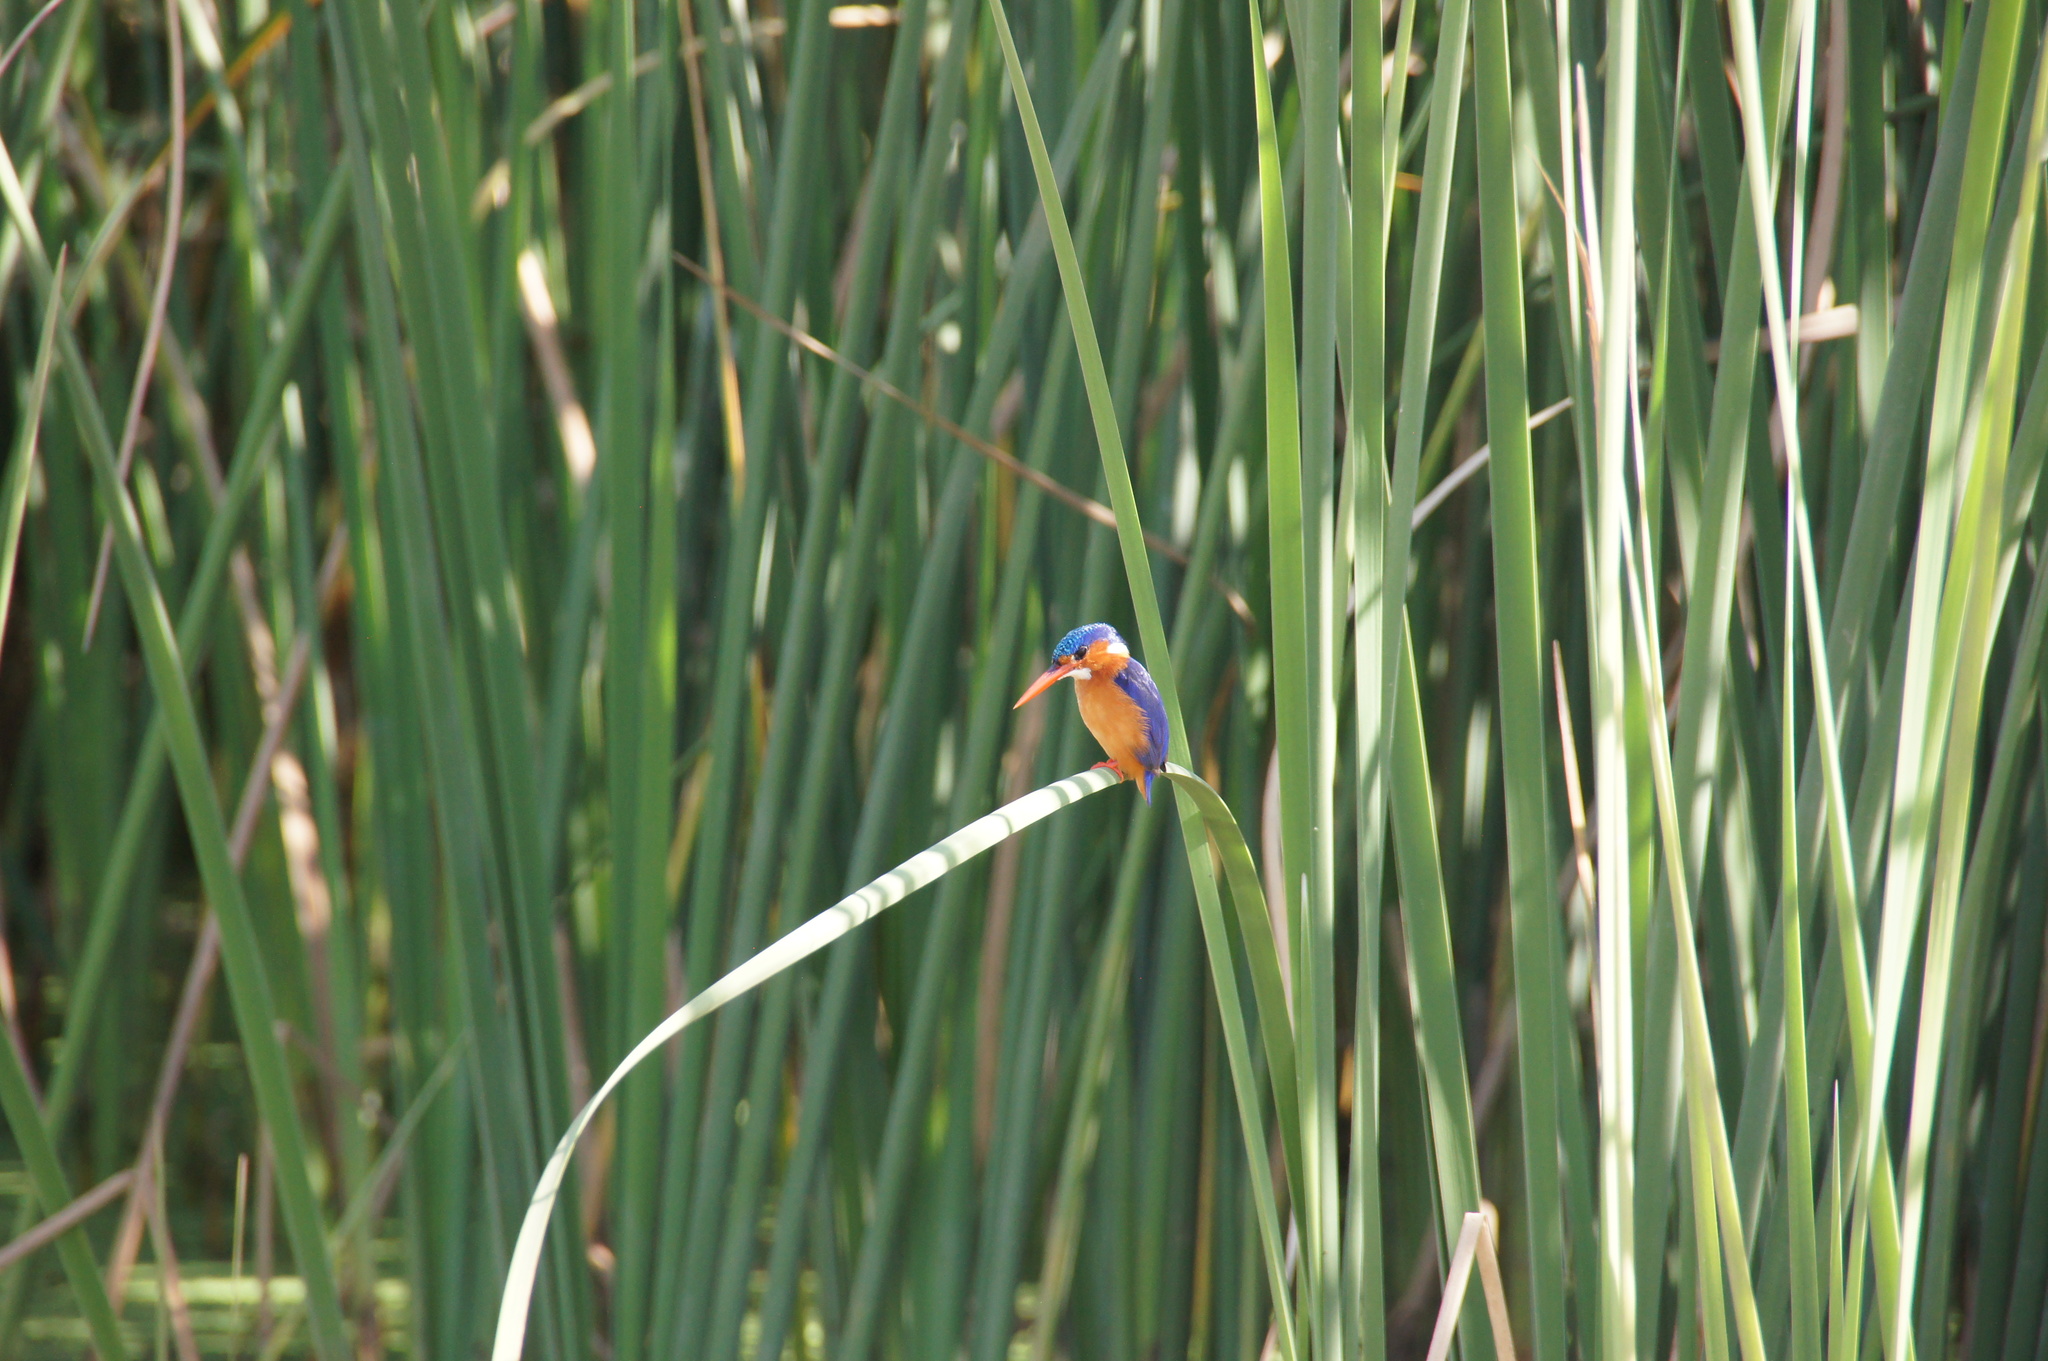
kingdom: Animalia
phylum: Chordata
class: Aves
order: Coraciiformes
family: Alcedinidae
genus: Corythornis
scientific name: Corythornis cristatus
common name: Malachite kingfisher
